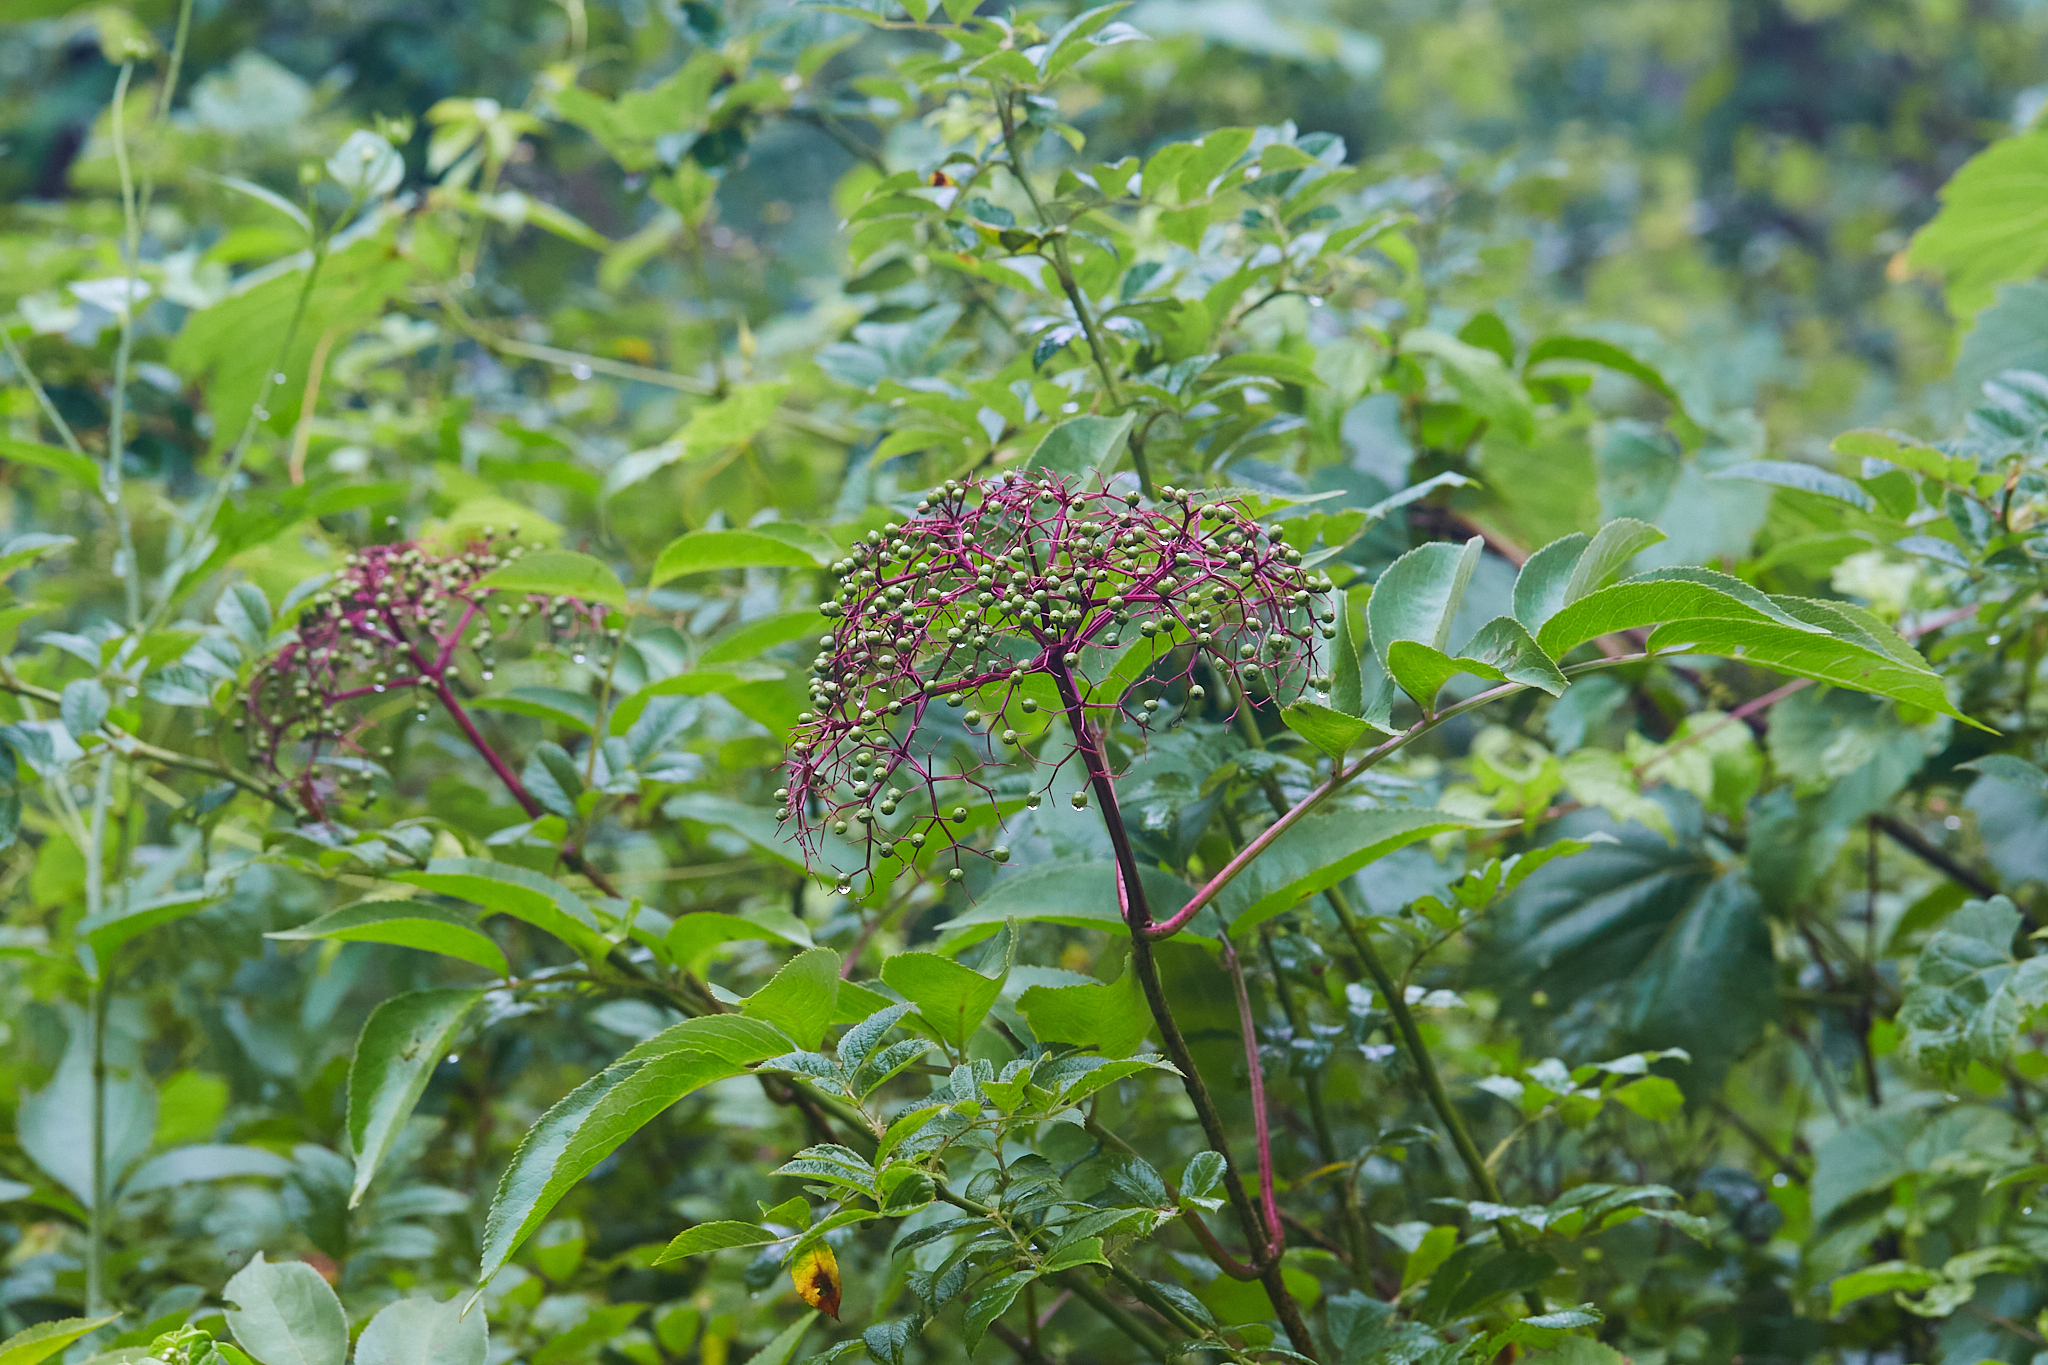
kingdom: Plantae
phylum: Tracheophyta
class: Magnoliopsida
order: Dipsacales
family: Viburnaceae
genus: Sambucus
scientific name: Sambucus canadensis
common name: American elder
